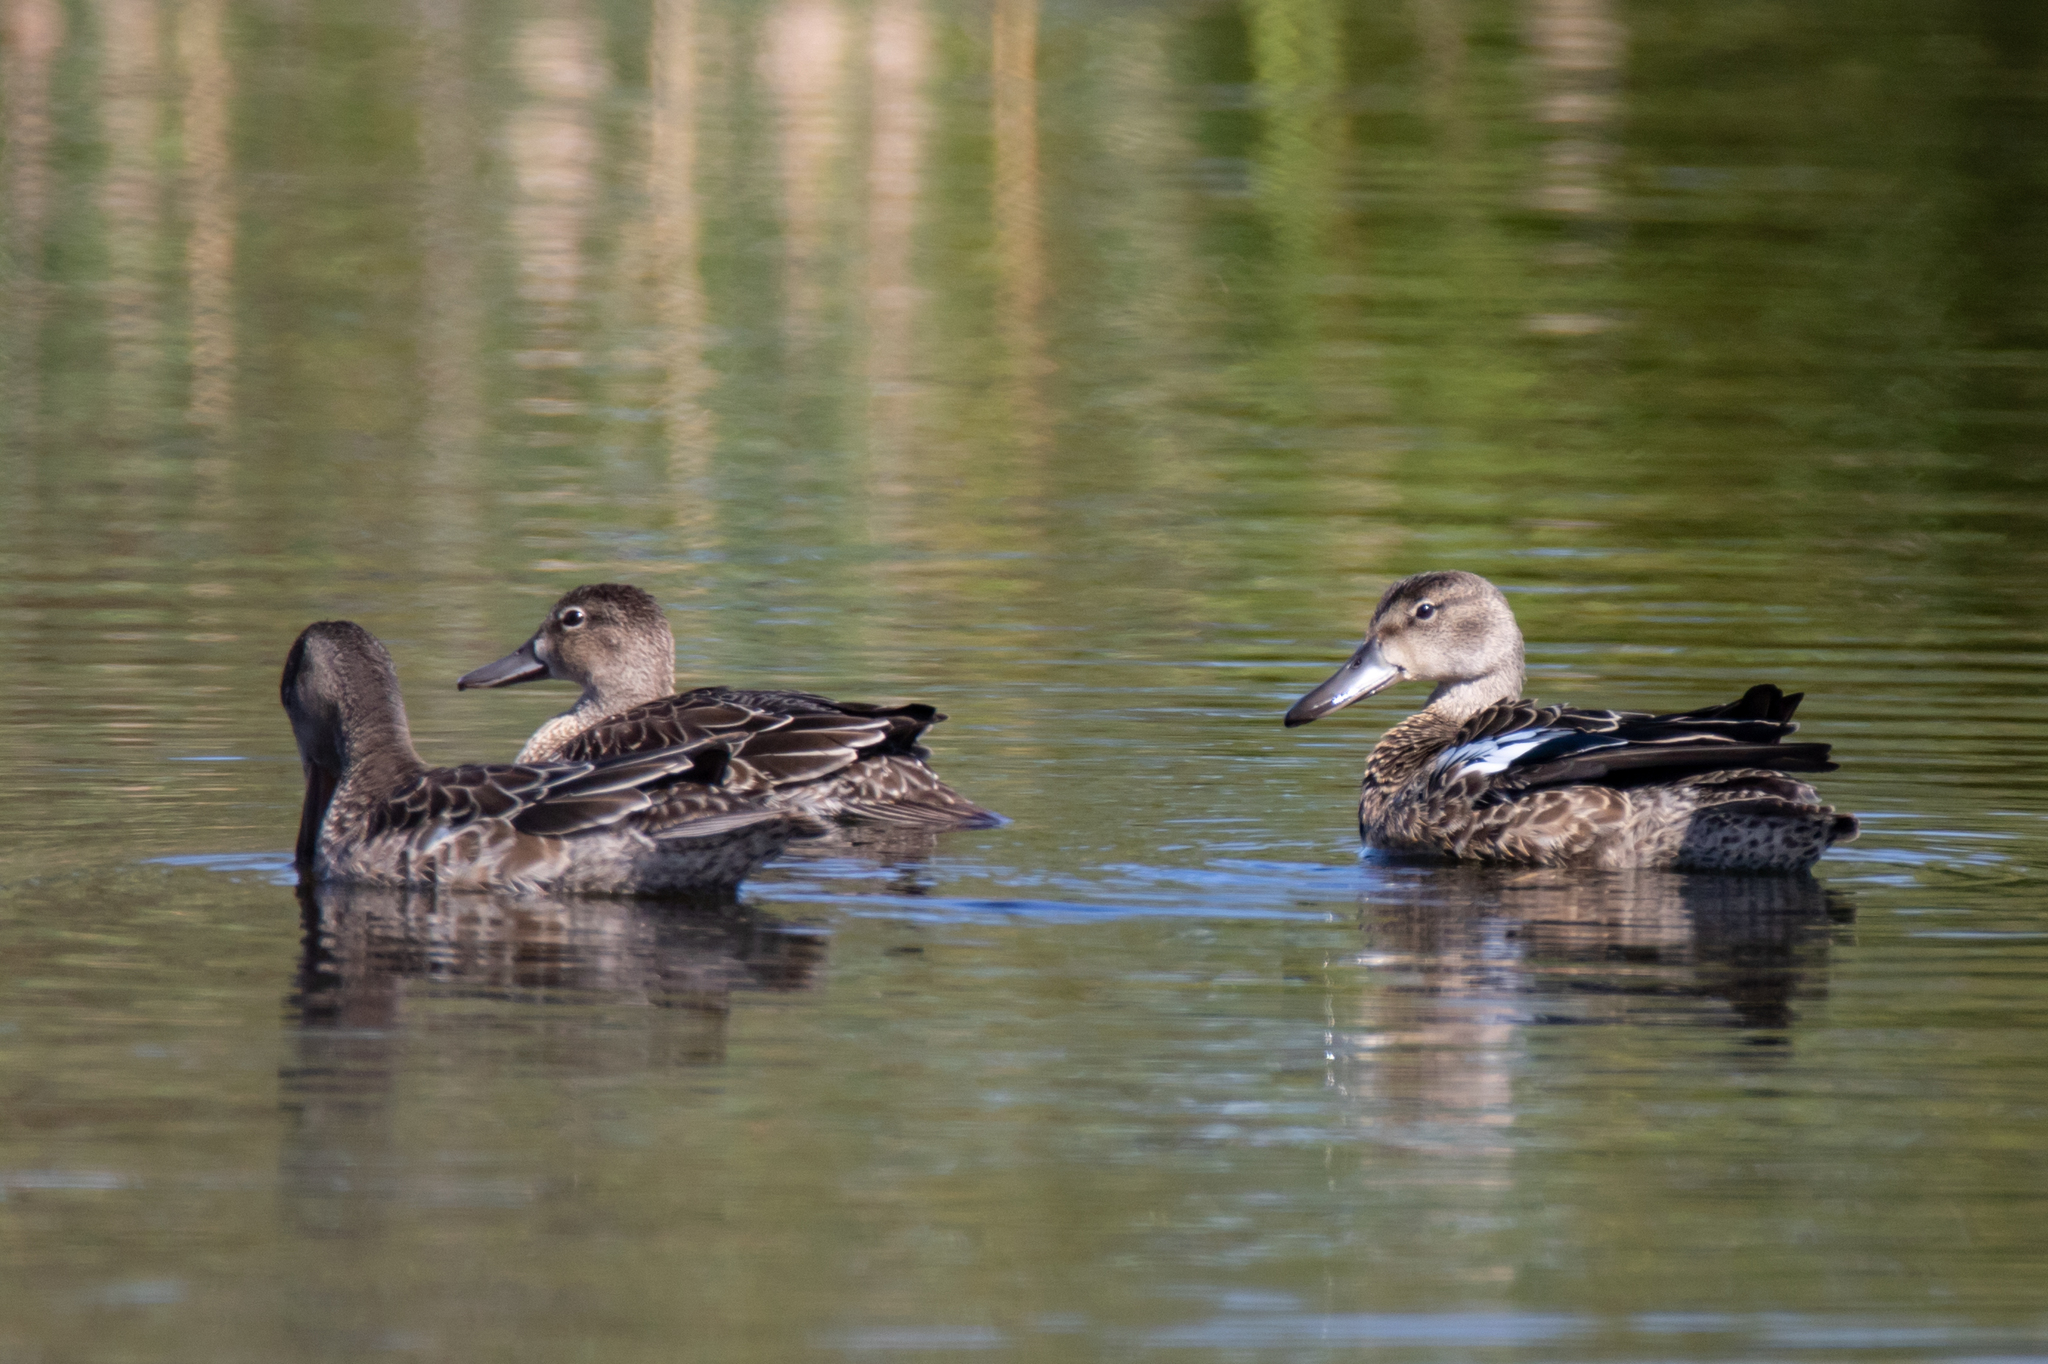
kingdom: Animalia
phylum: Chordata
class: Aves
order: Anseriformes
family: Anatidae
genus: Spatula
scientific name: Spatula discors
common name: Blue-winged teal
